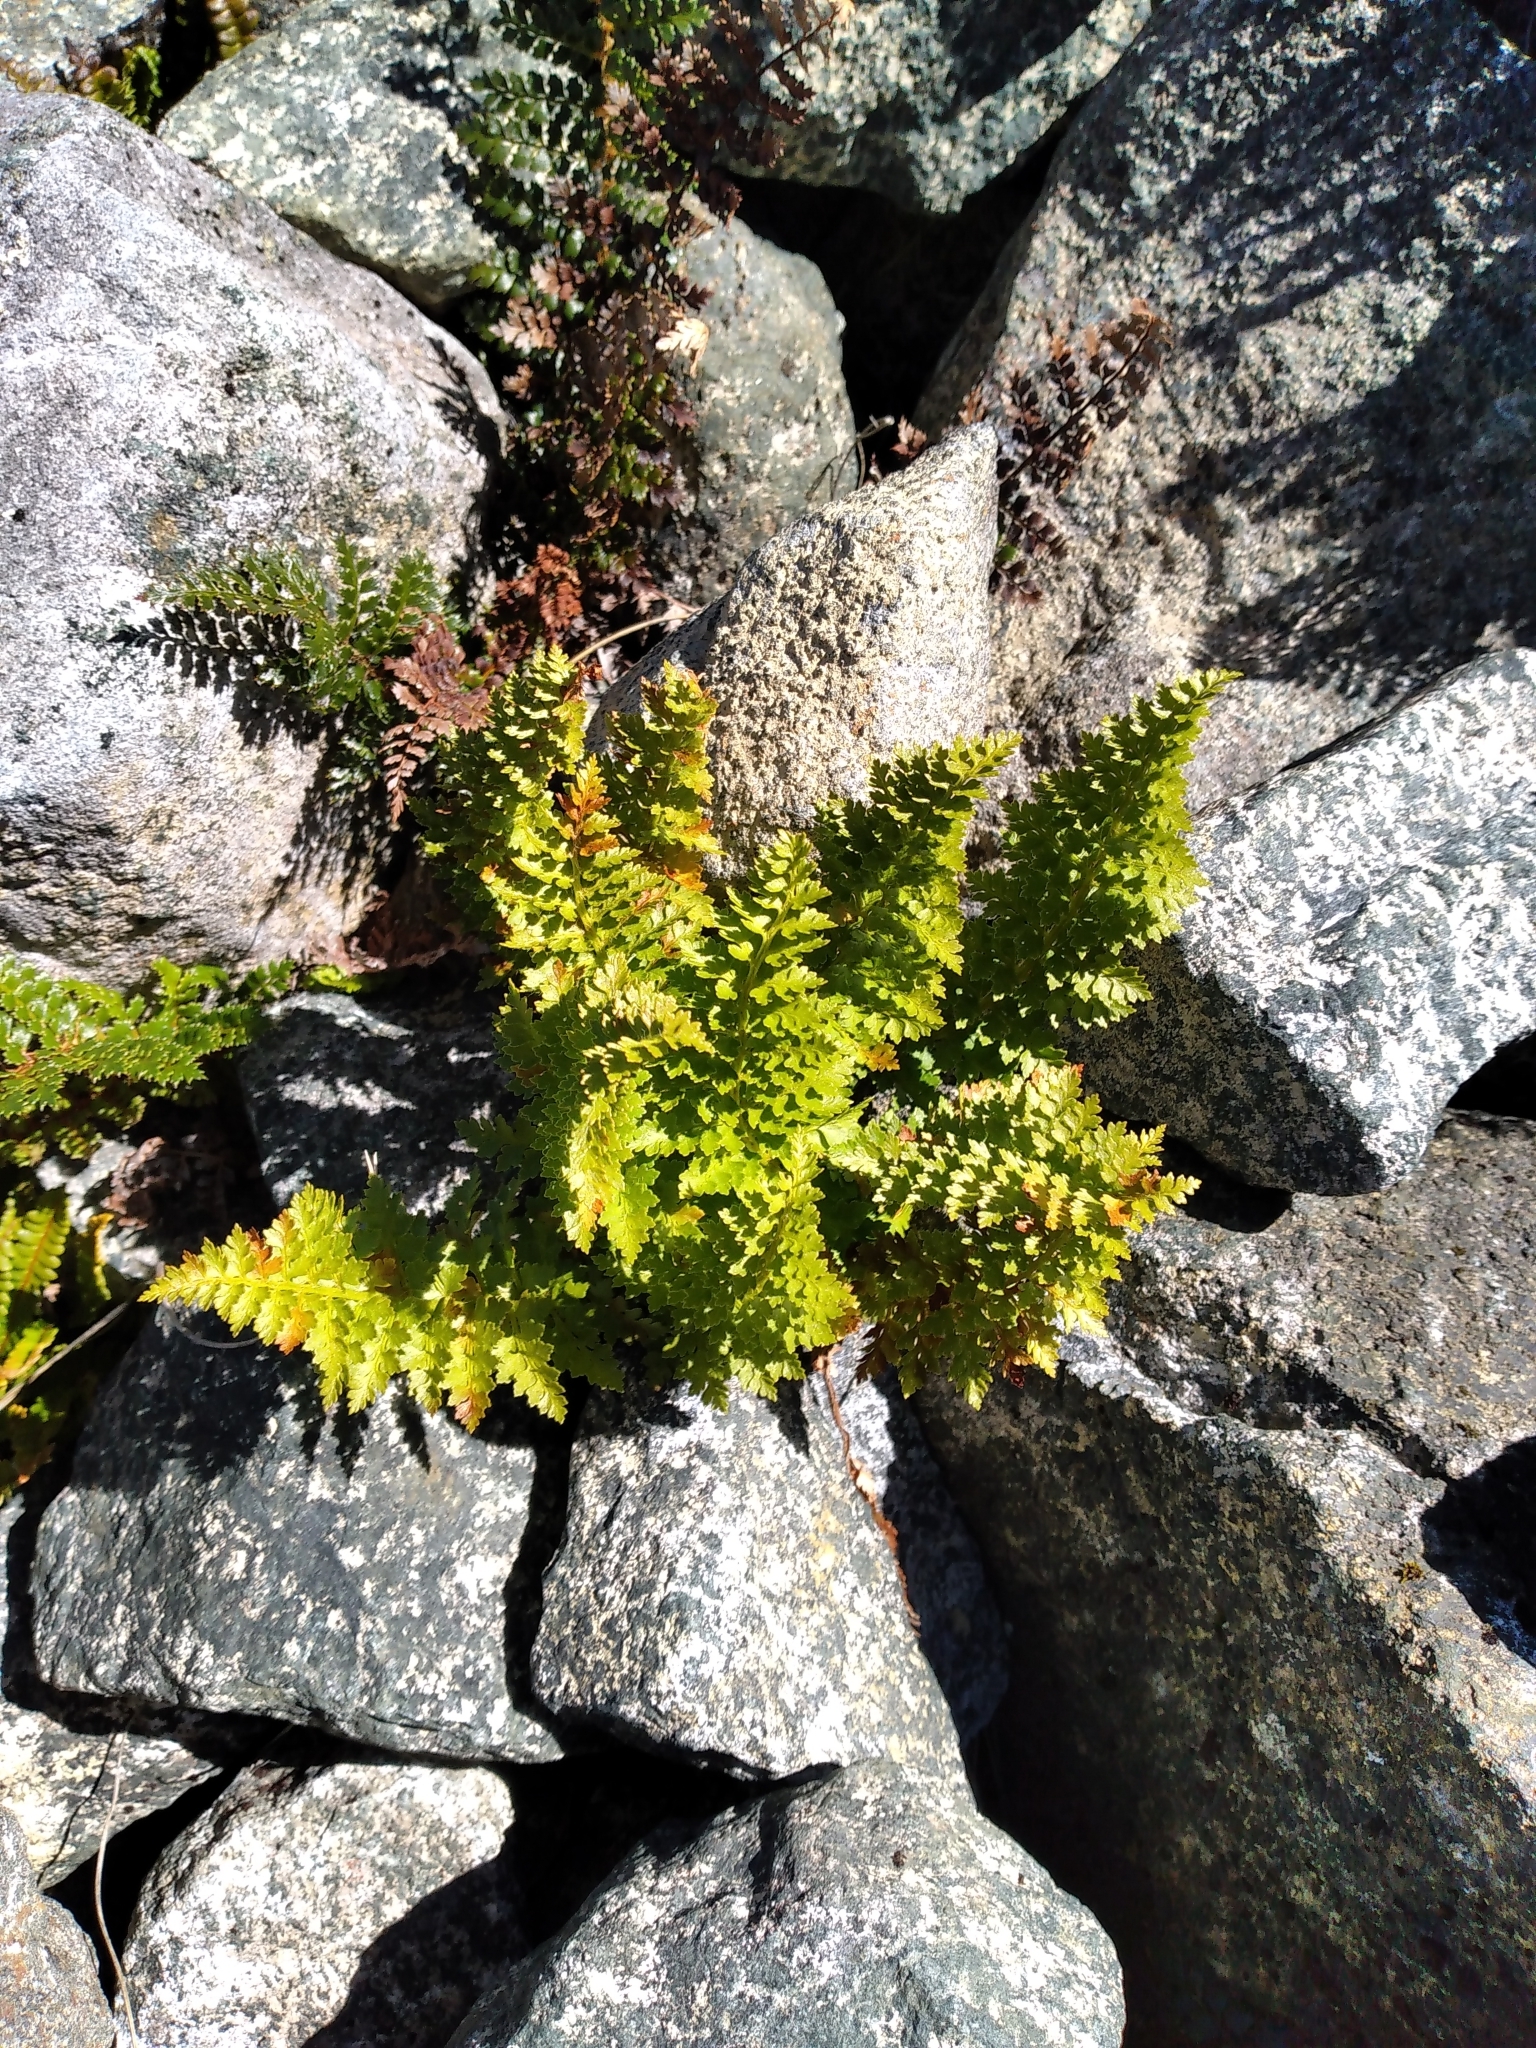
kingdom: Plantae
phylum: Tracheophyta
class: Polypodiopsida
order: Polypodiales
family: Dryopteridaceae
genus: Polystichum
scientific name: Polystichum cystostegia
